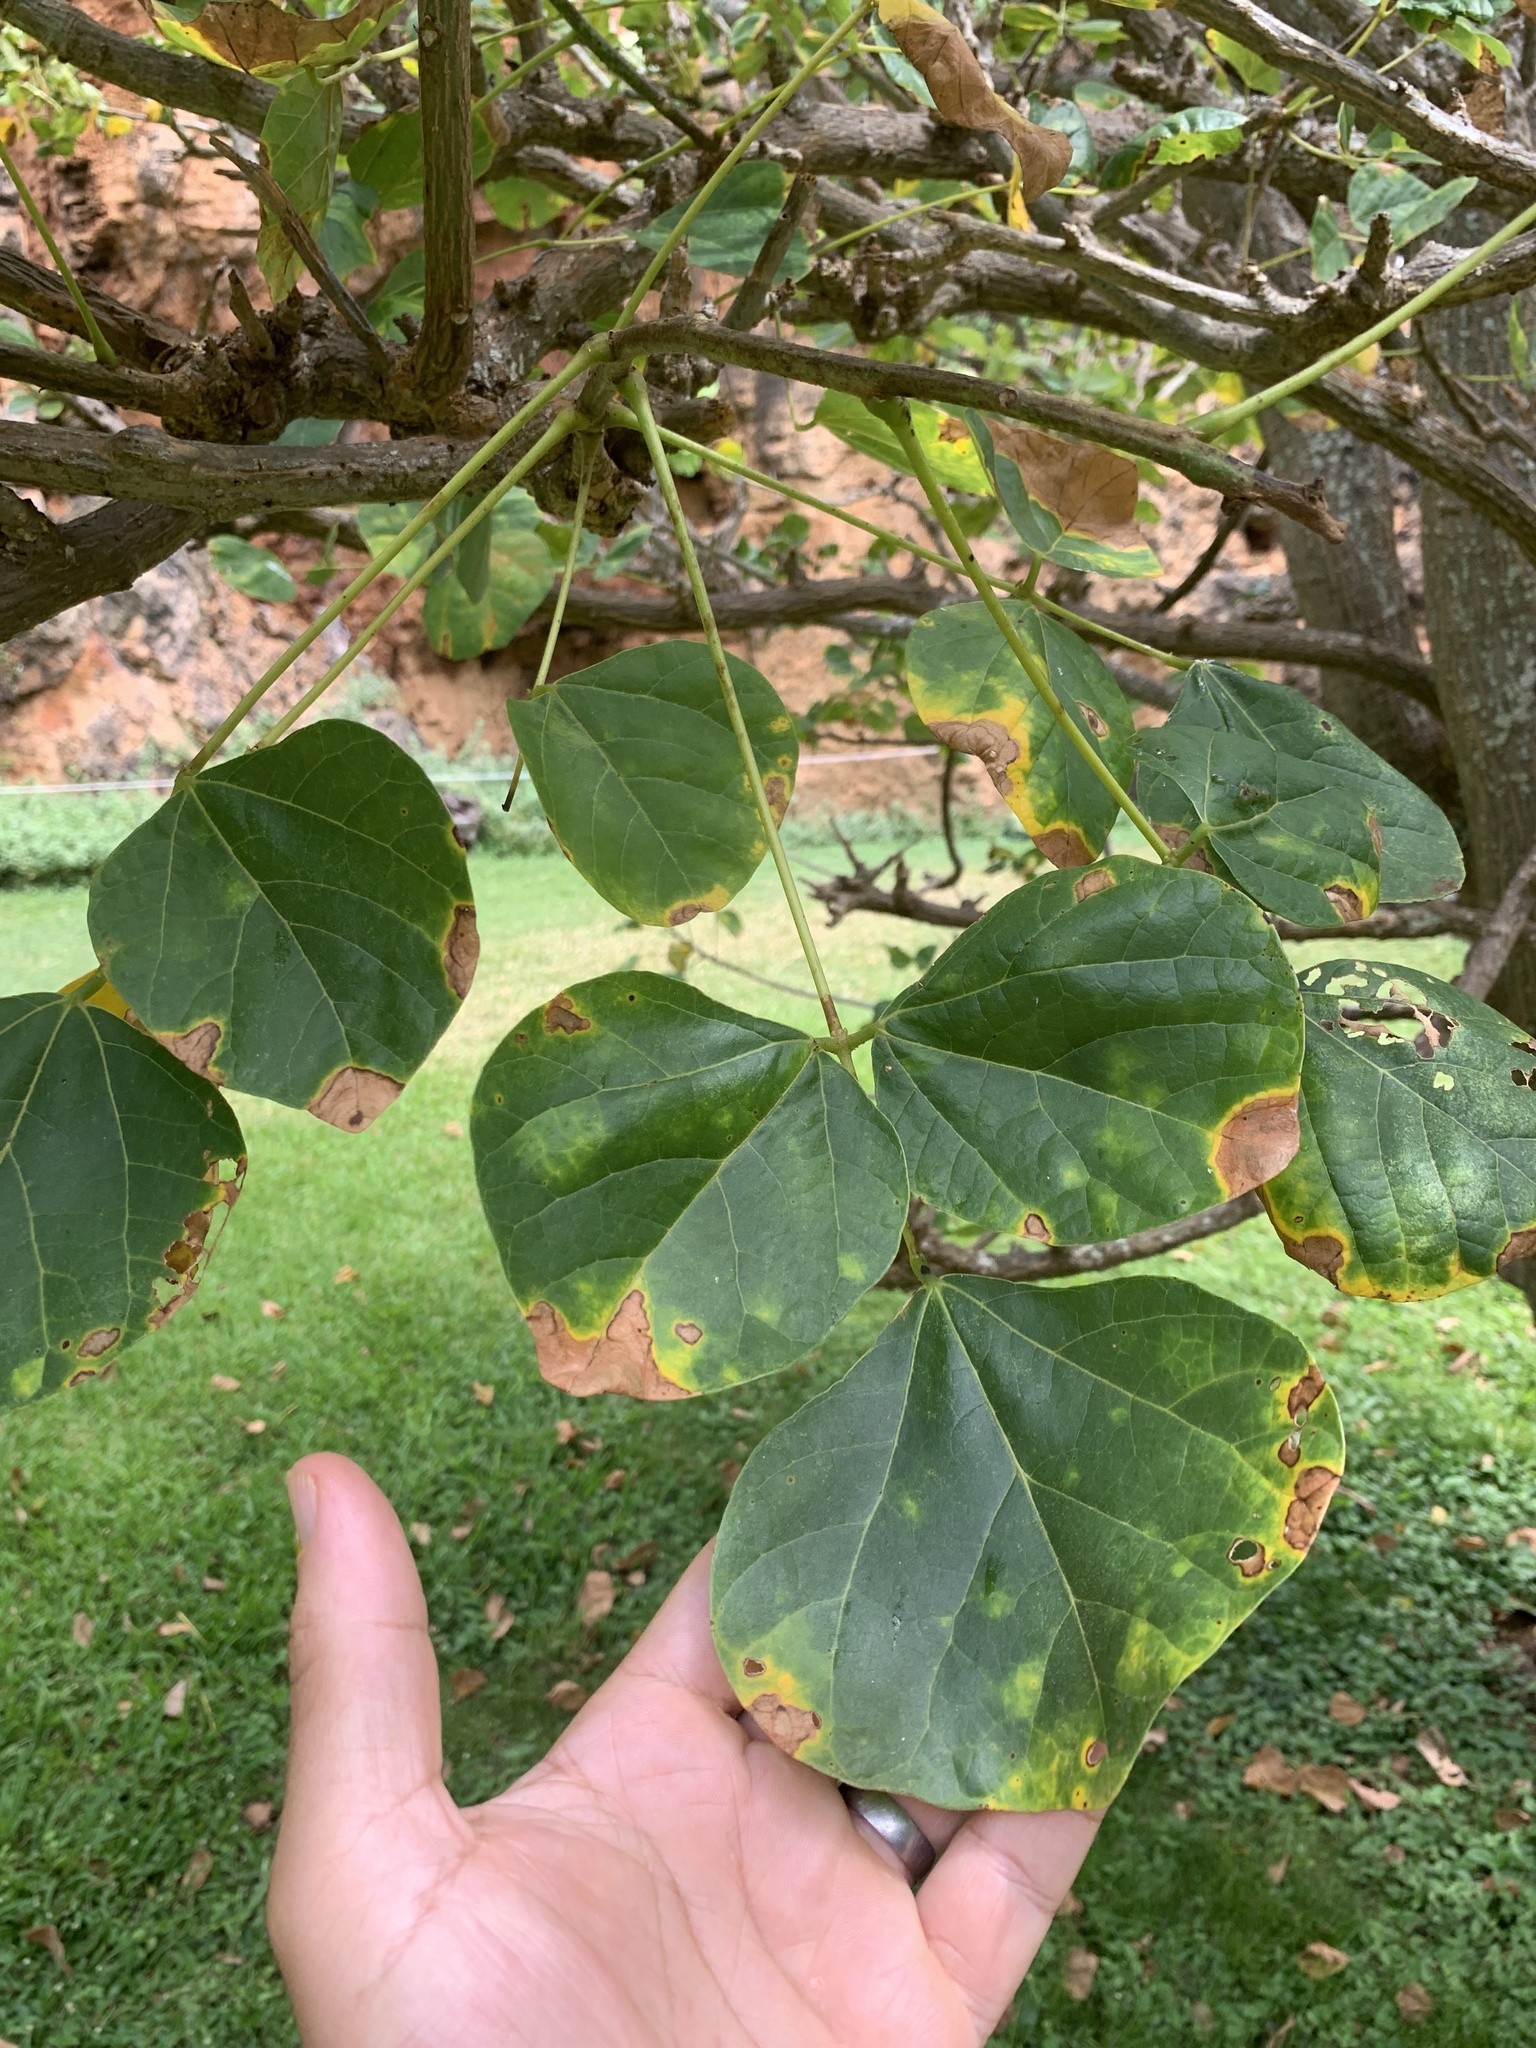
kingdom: Plantae
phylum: Tracheophyta
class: Magnoliopsida
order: Fabales
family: Fabaceae
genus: Erythrina
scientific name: Erythrina sandwicensis
